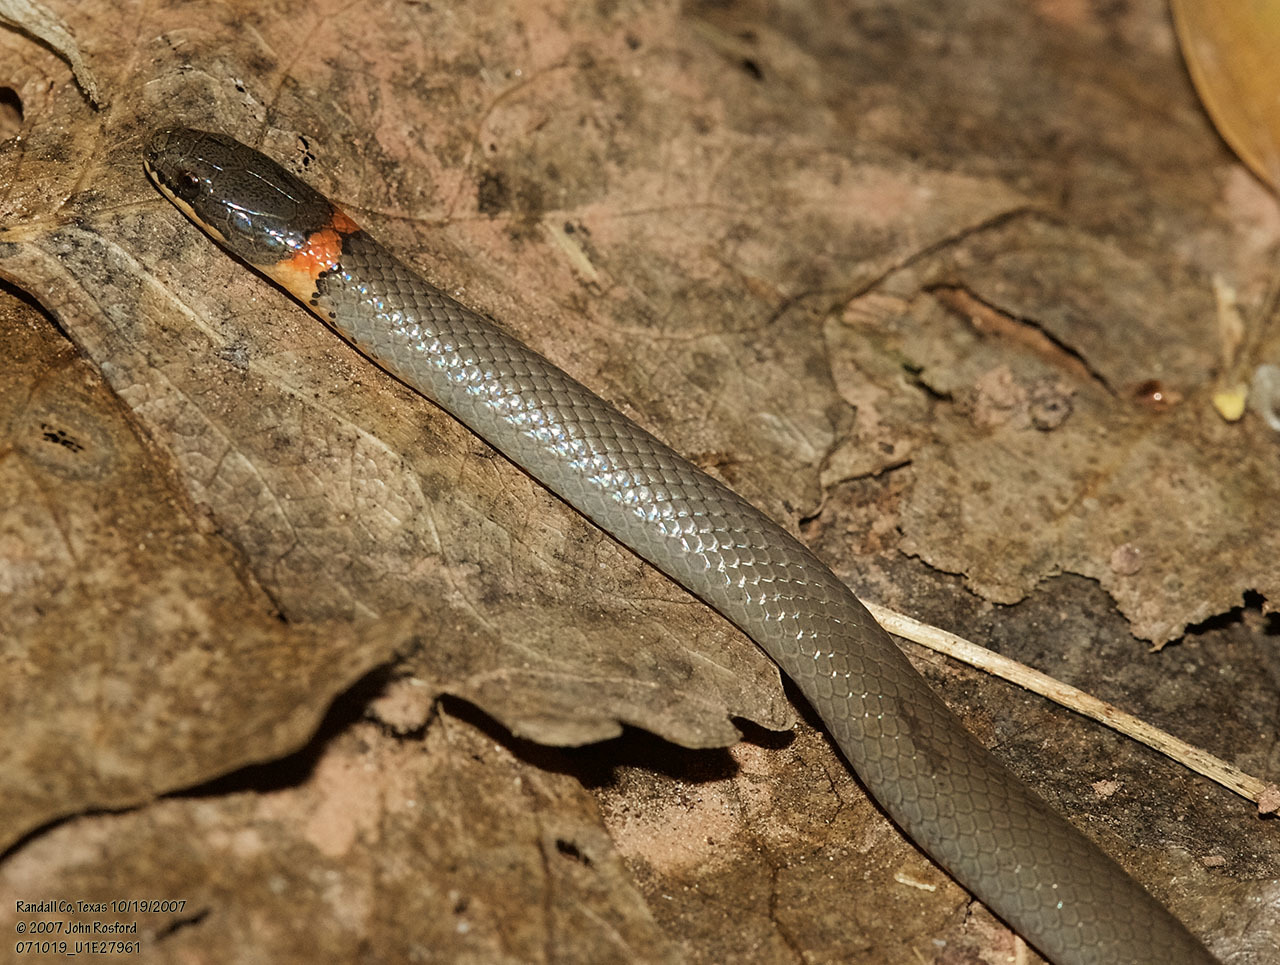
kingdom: Animalia
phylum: Chordata
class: Squamata
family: Colubridae
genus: Diadophis
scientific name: Diadophis punctatus
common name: Ringneck snake
